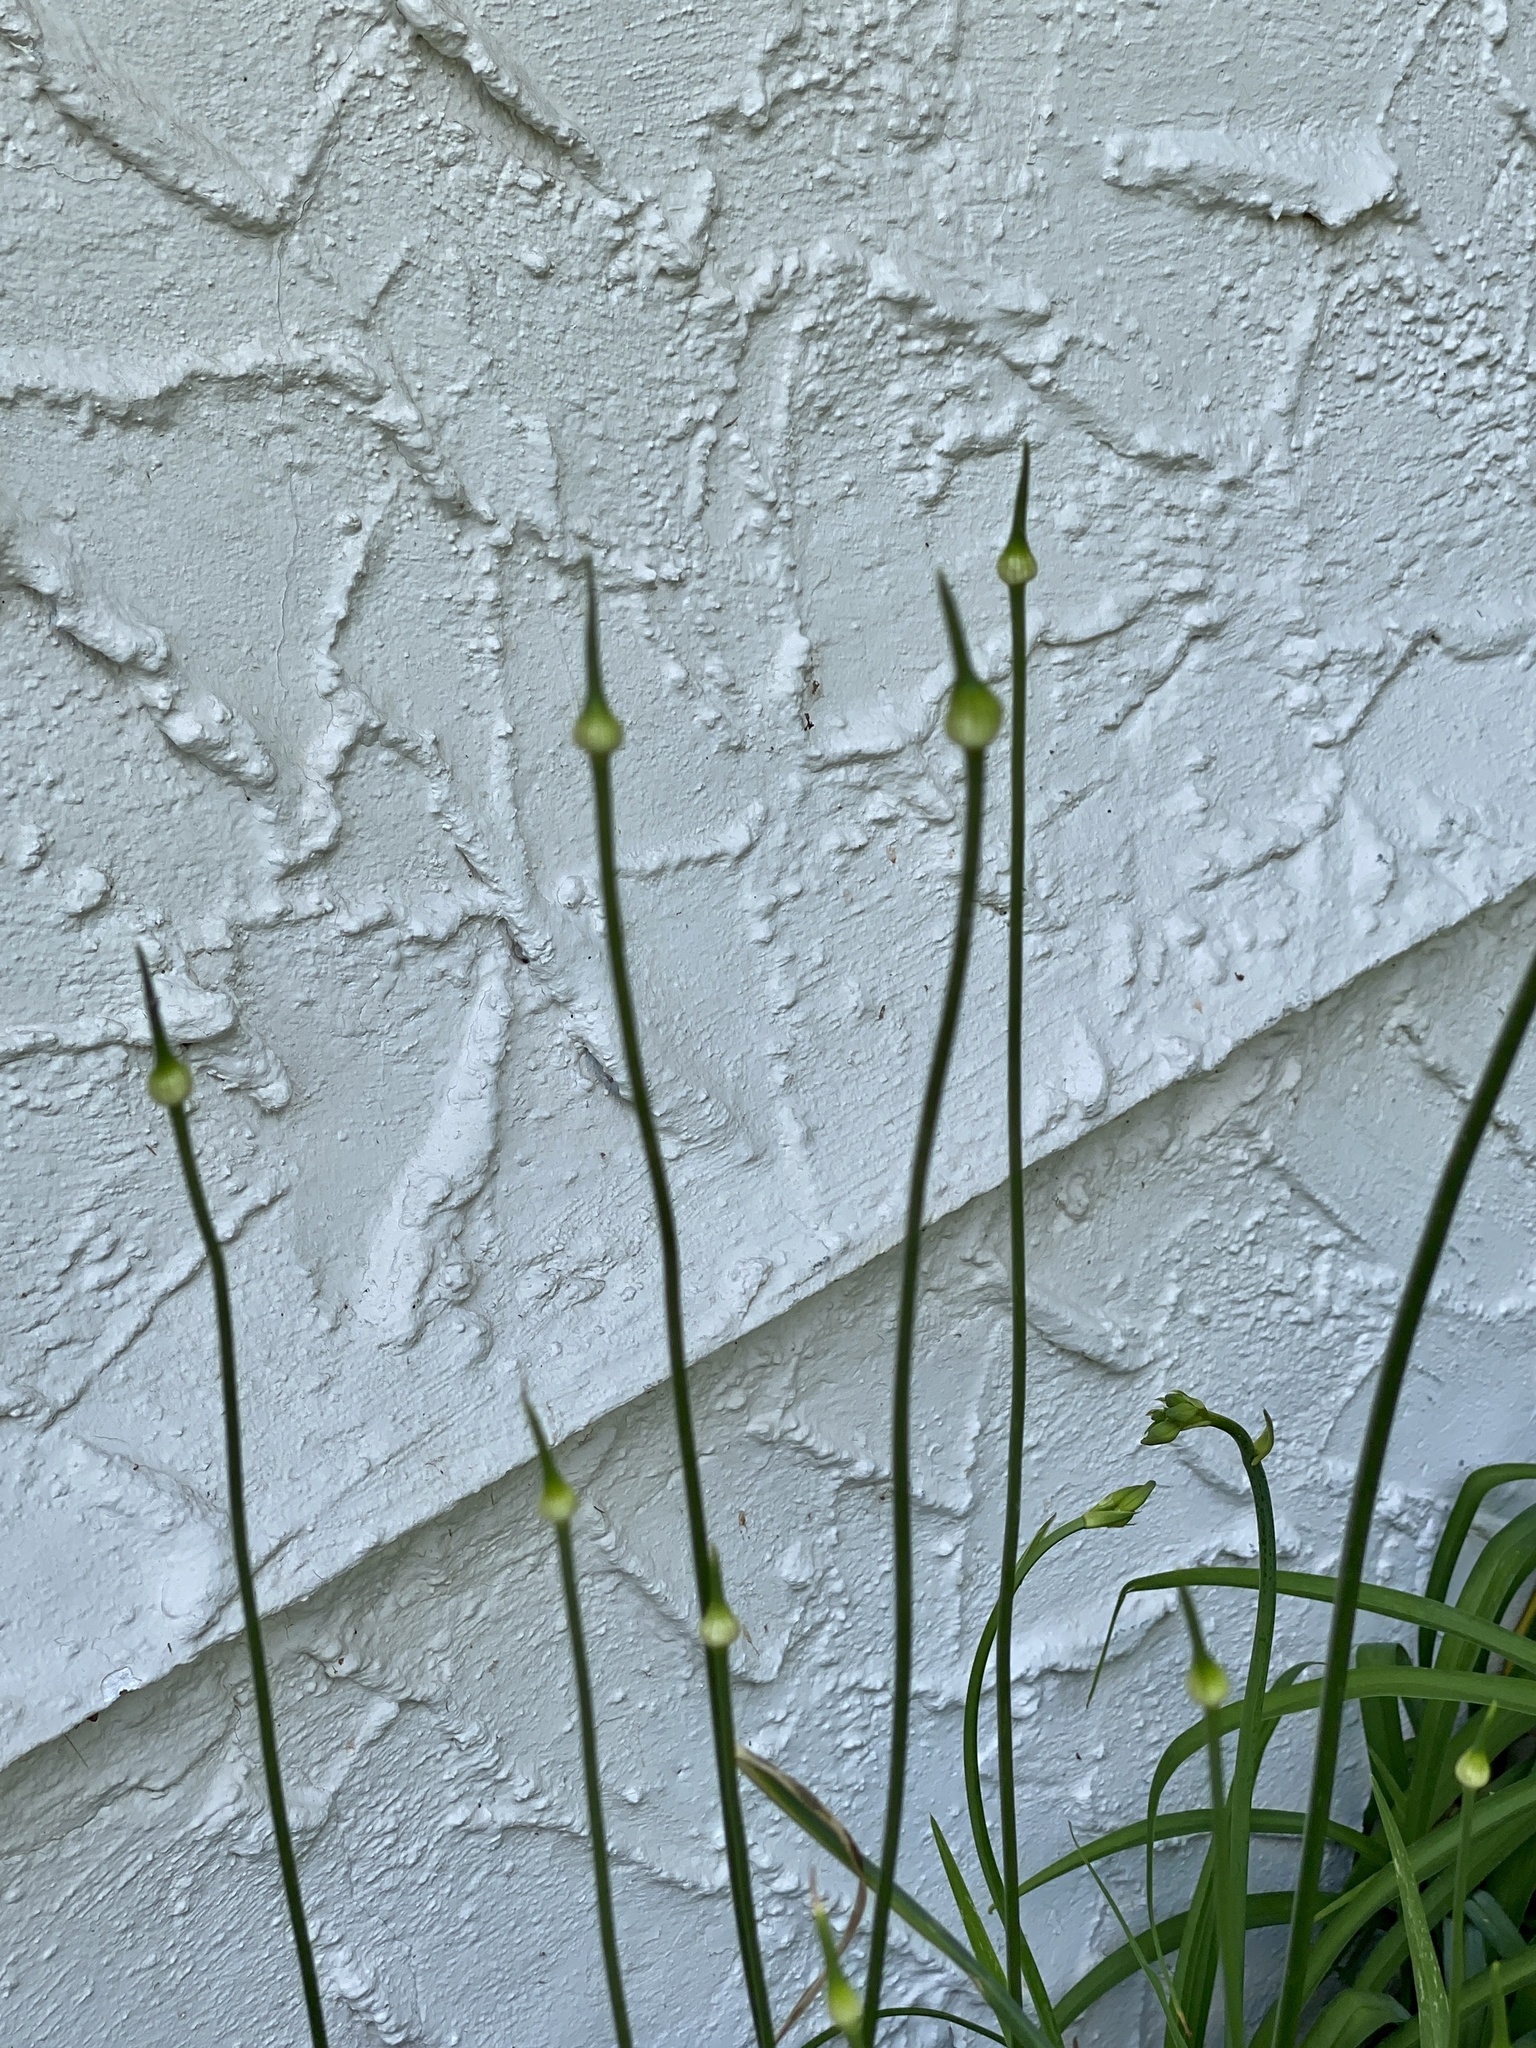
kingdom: Plantae
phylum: Tracheophyta
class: Liliopsida
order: Asparagales
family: Amaryllidaceae
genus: Allium
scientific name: Allium vineale
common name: Crow garlic
